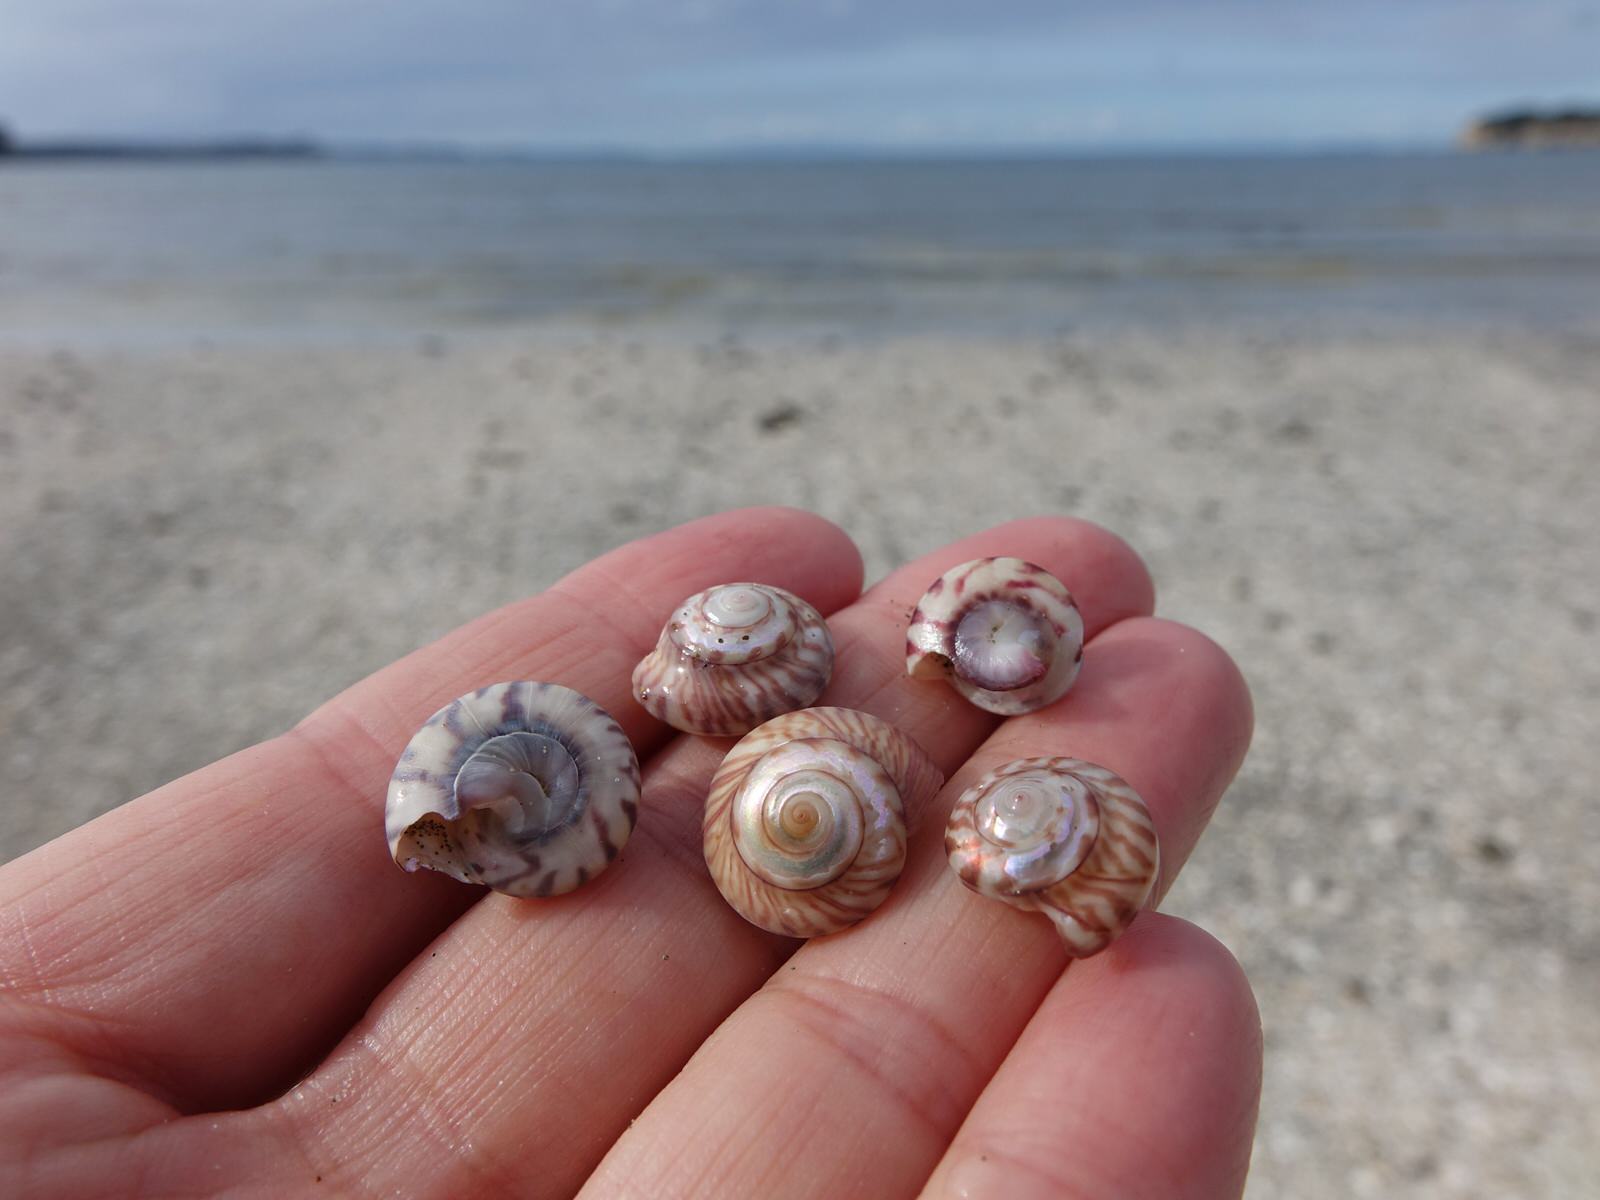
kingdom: Animalia
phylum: Mollusca
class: Gastropoda
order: Trochida
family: Trochidae
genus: Zethalia
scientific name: Zethalia zelandica
